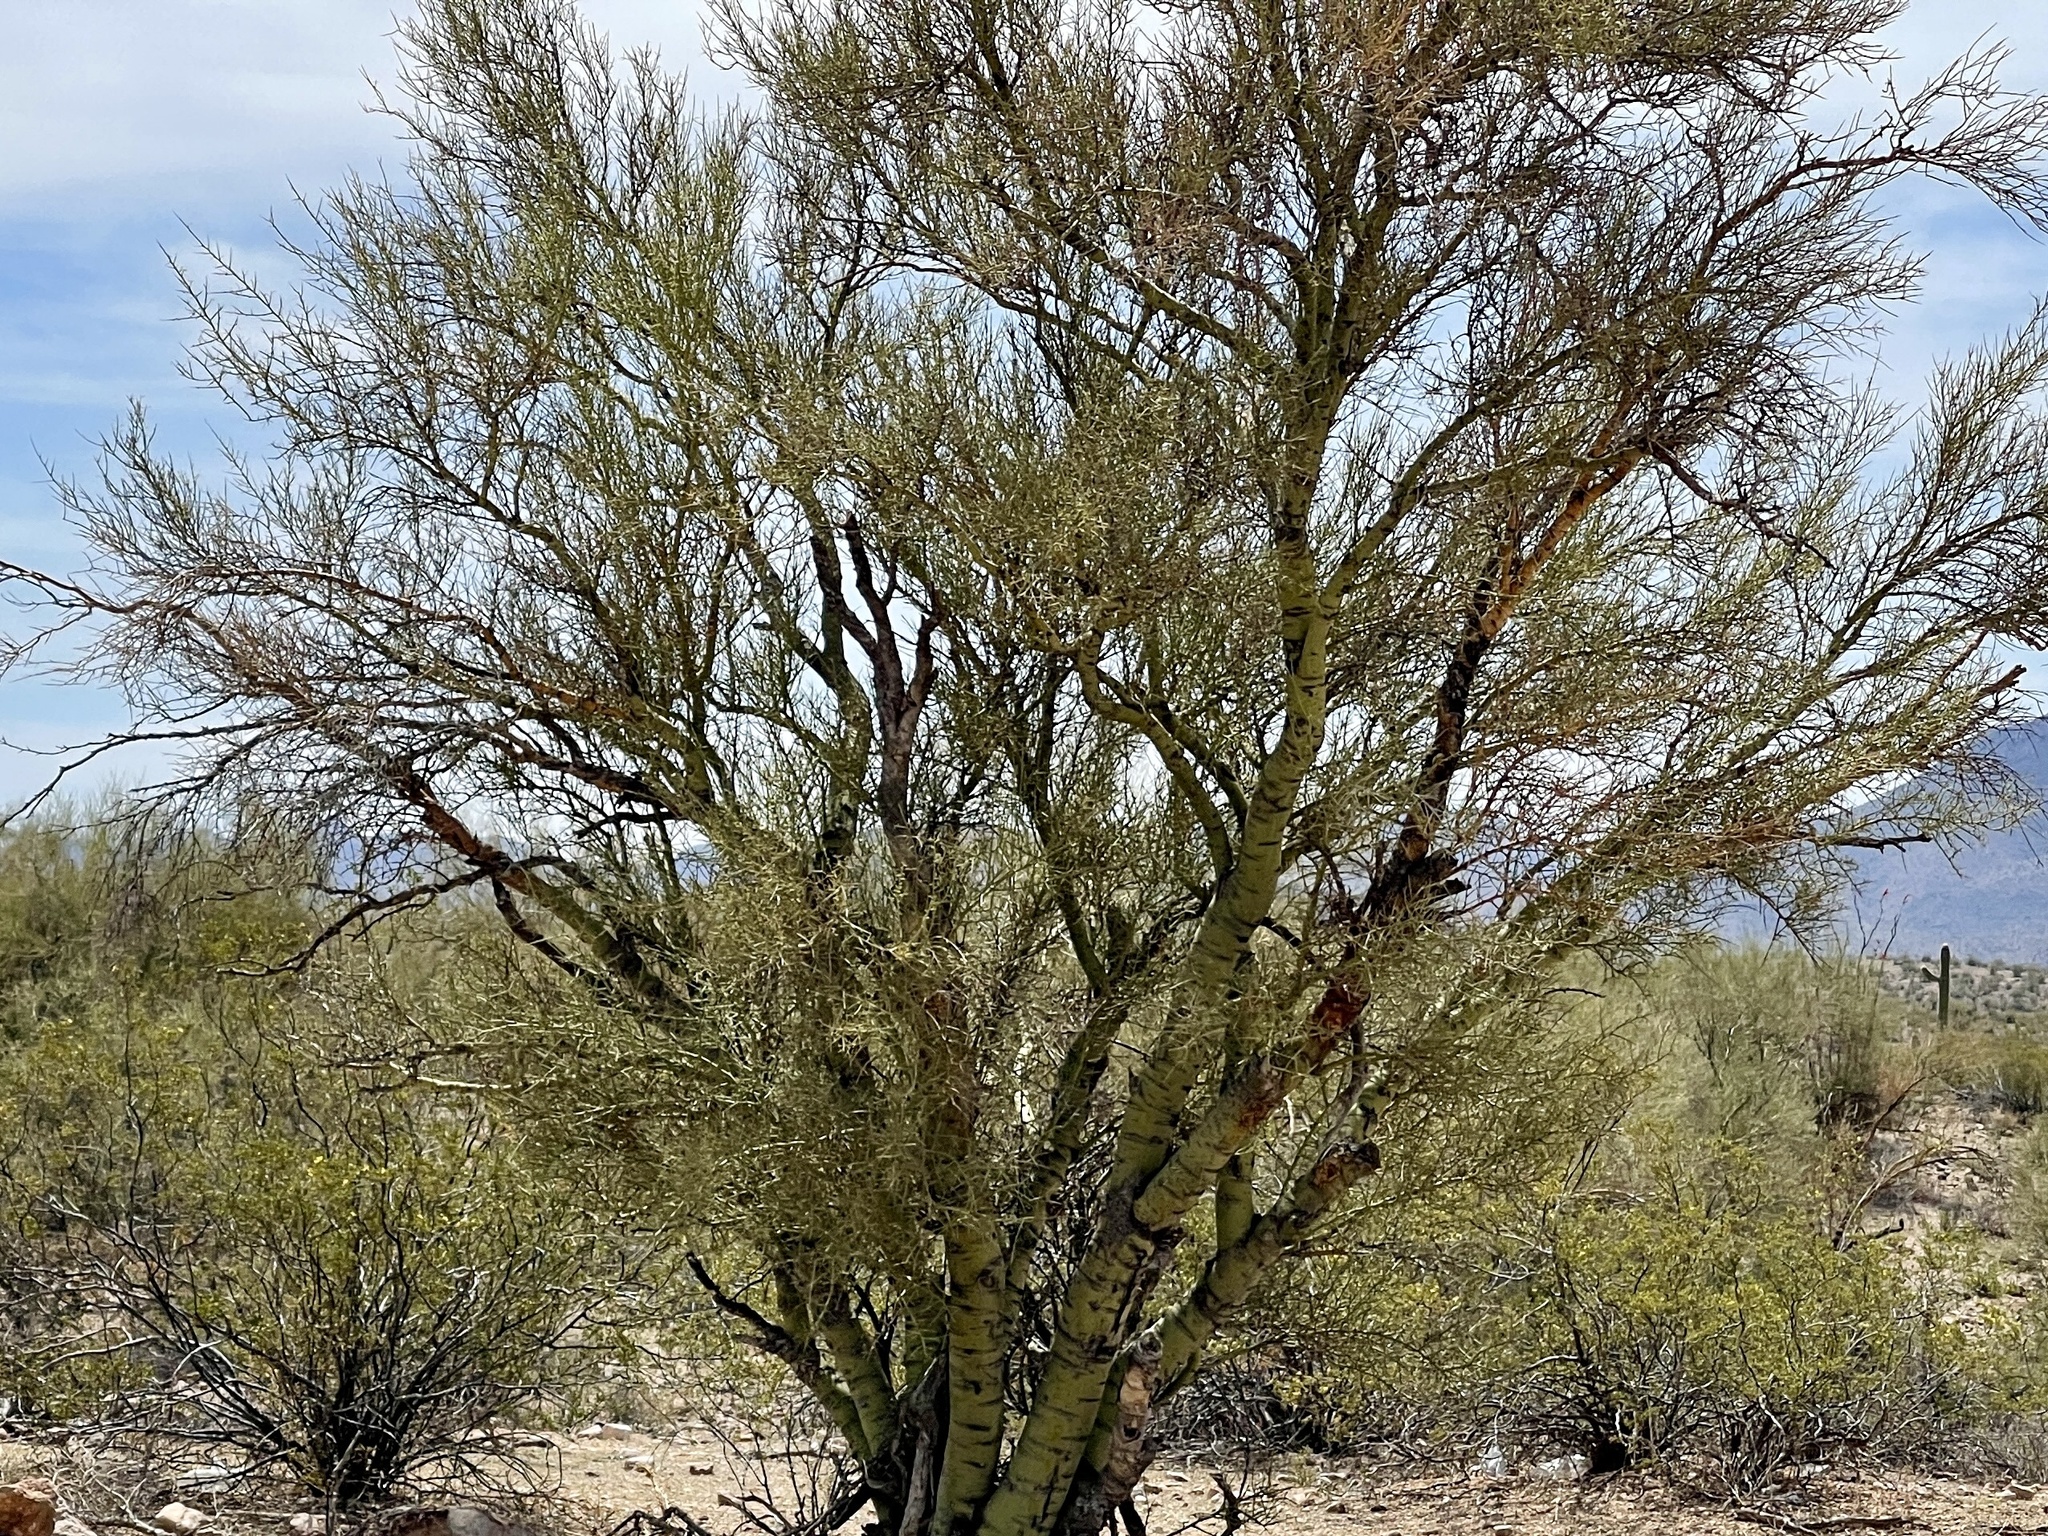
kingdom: Plantae
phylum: Tracheophyta
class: Magnoliopsida
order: Fabales
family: Fabaceae
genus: Parkinsonia
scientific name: Parkinsonia microphylla
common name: Yellow paloverde
